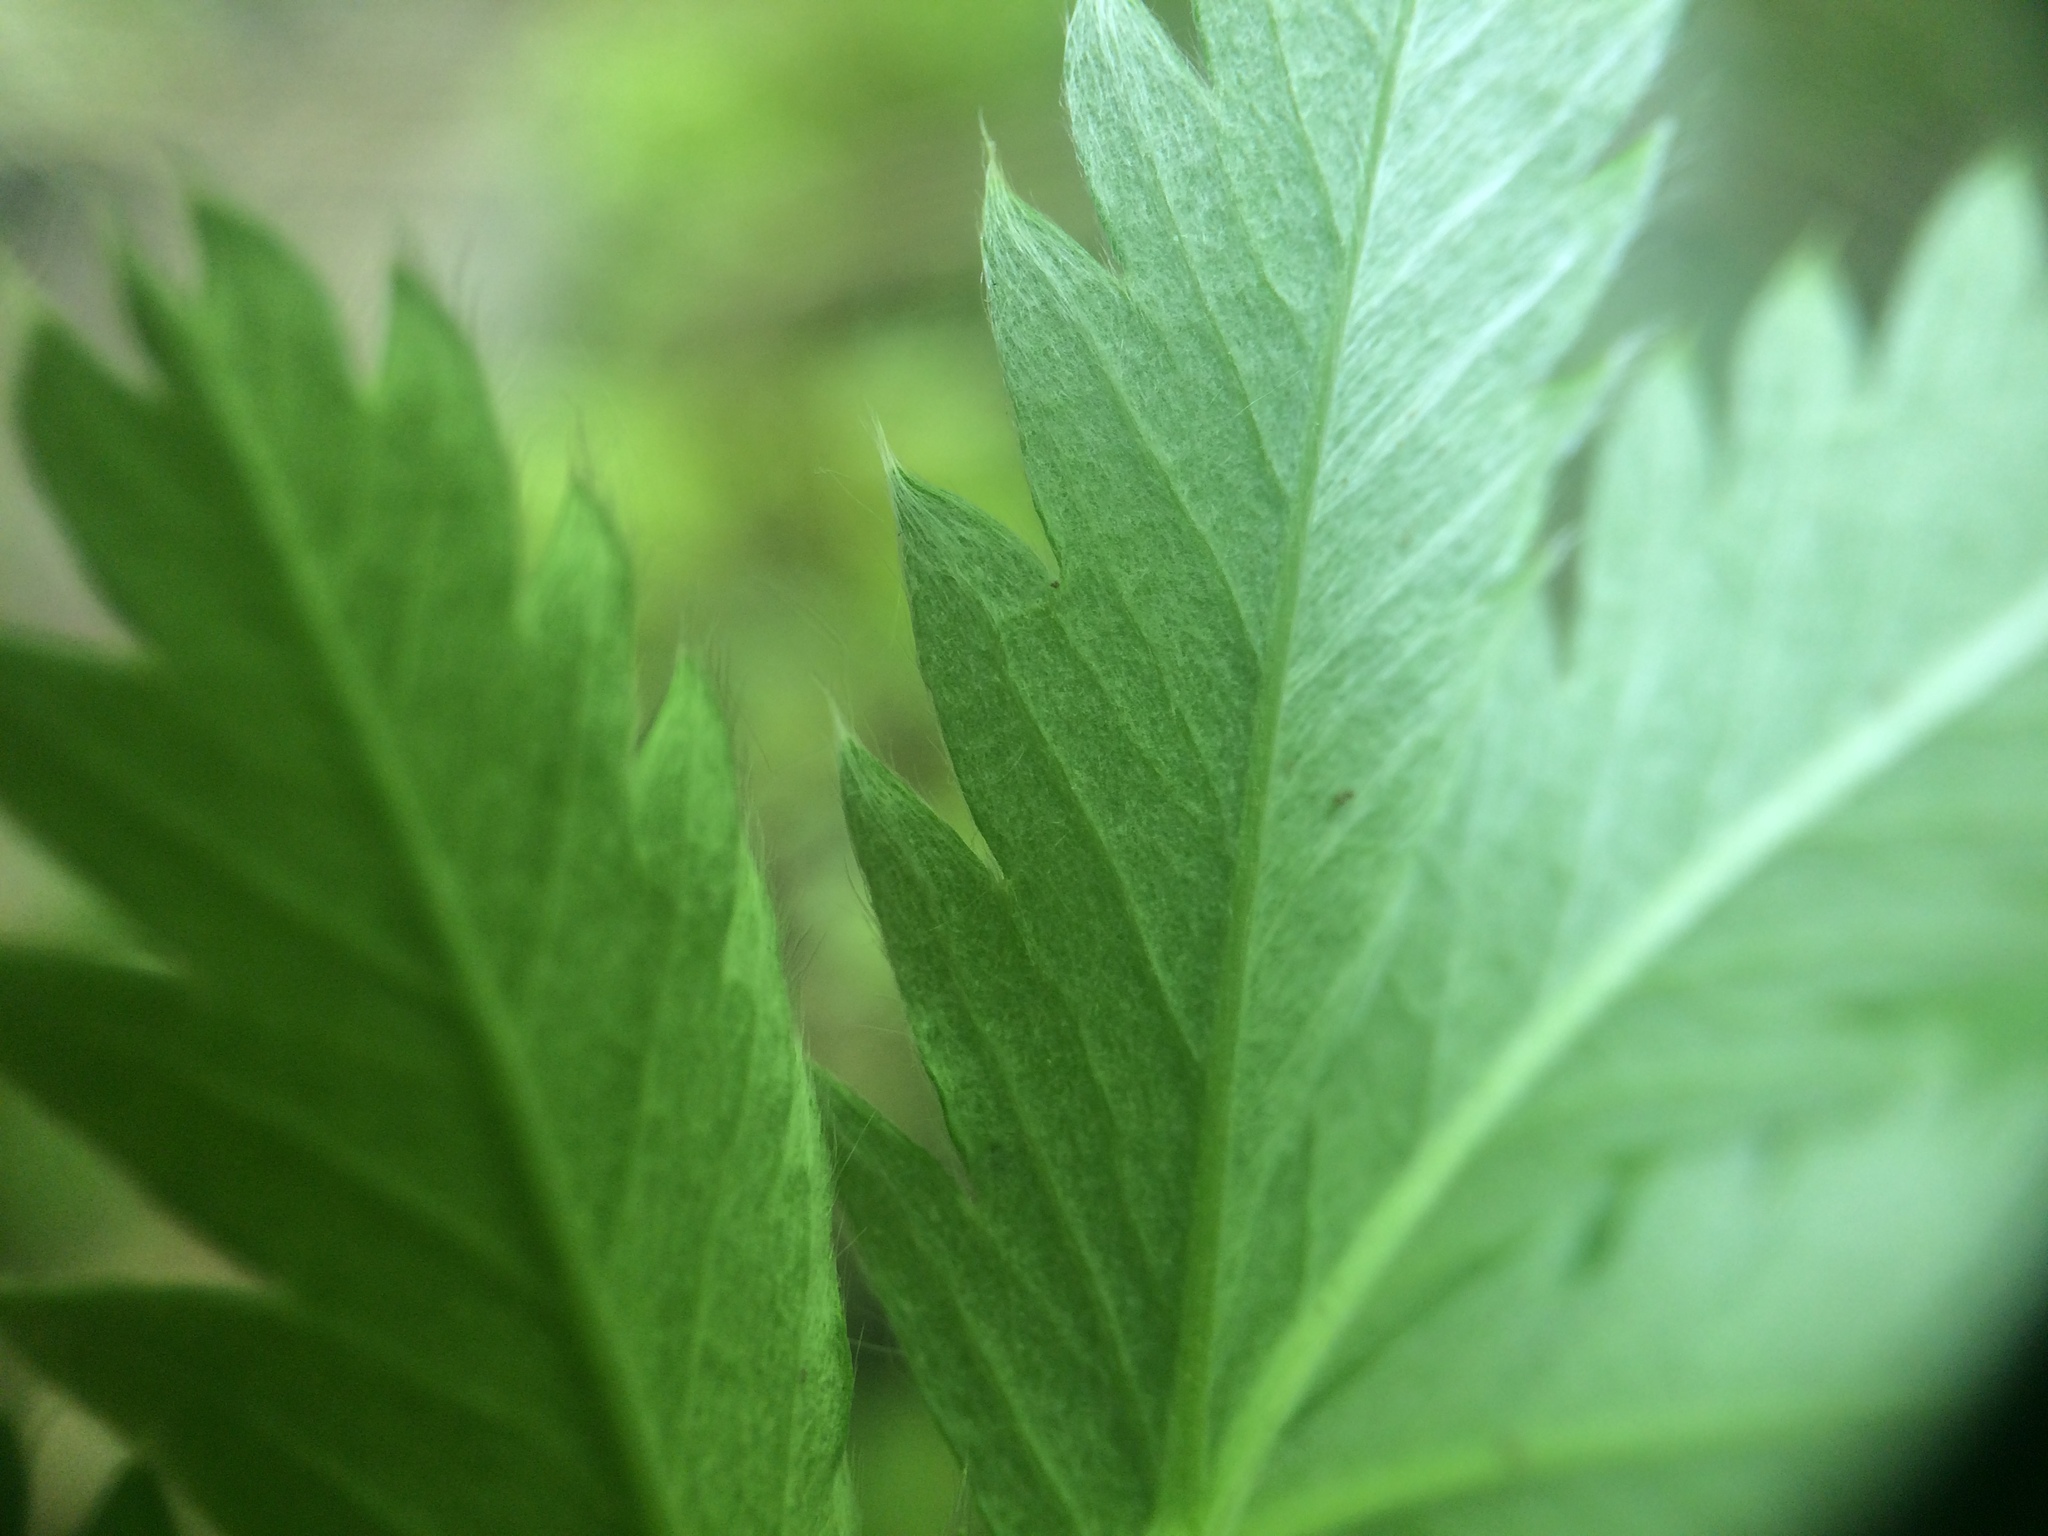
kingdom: Plantae
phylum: Tracheophyta
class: Magnoliopsida
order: Rosales
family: Rosaceae
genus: Argentina
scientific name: Argentina anserina
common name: Common silverweed
